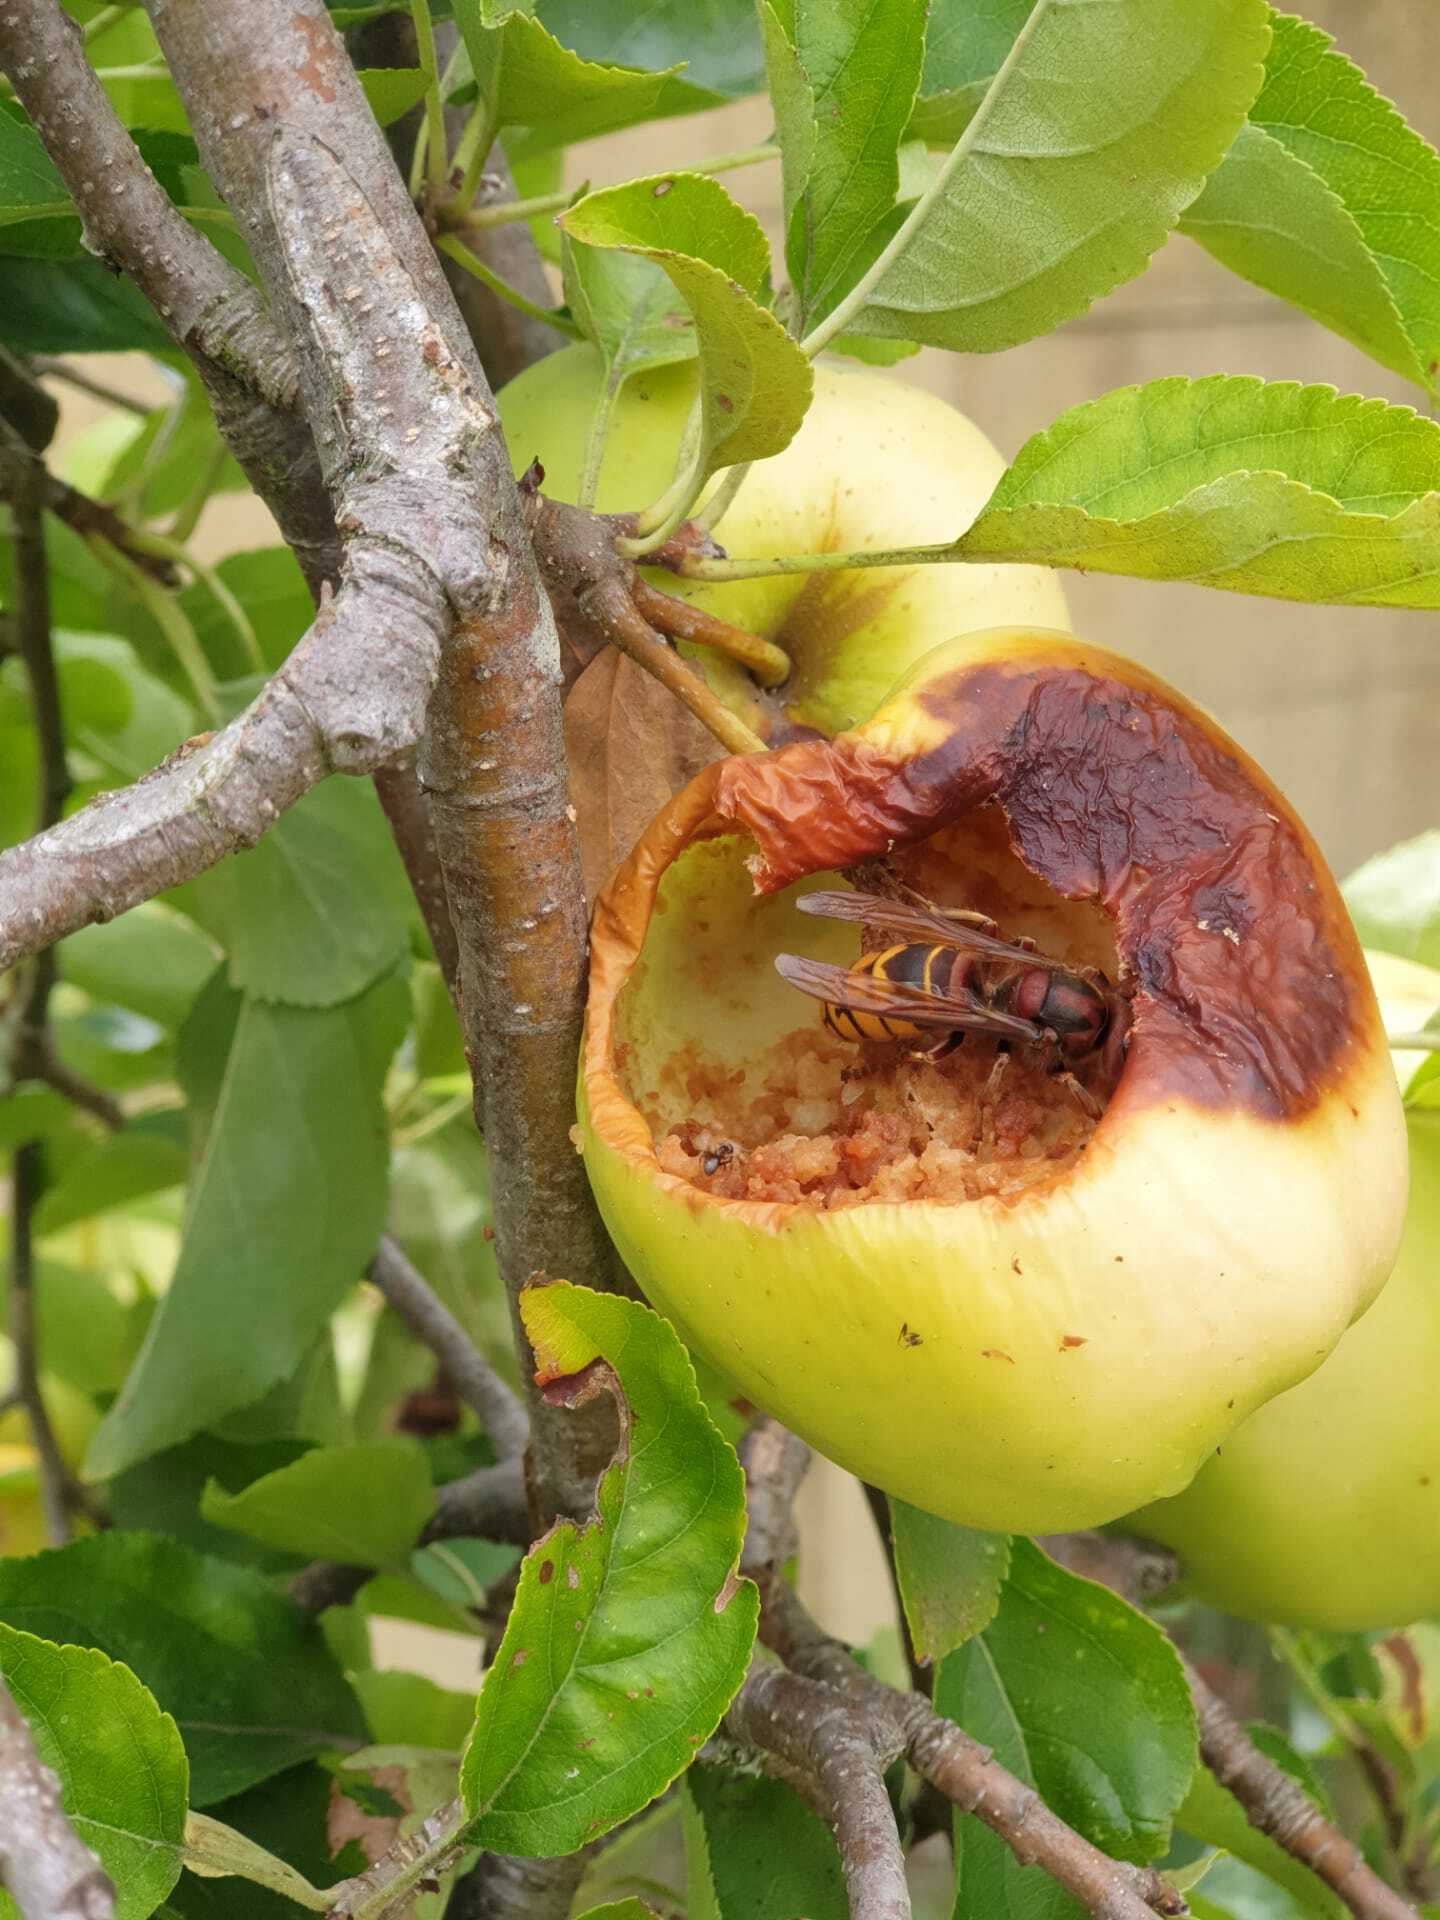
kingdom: Animalia
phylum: Arthropoda
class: Insecta
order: Hymenoptera
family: Vespidae
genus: Vespa
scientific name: Vespa crabro
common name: Hornet
